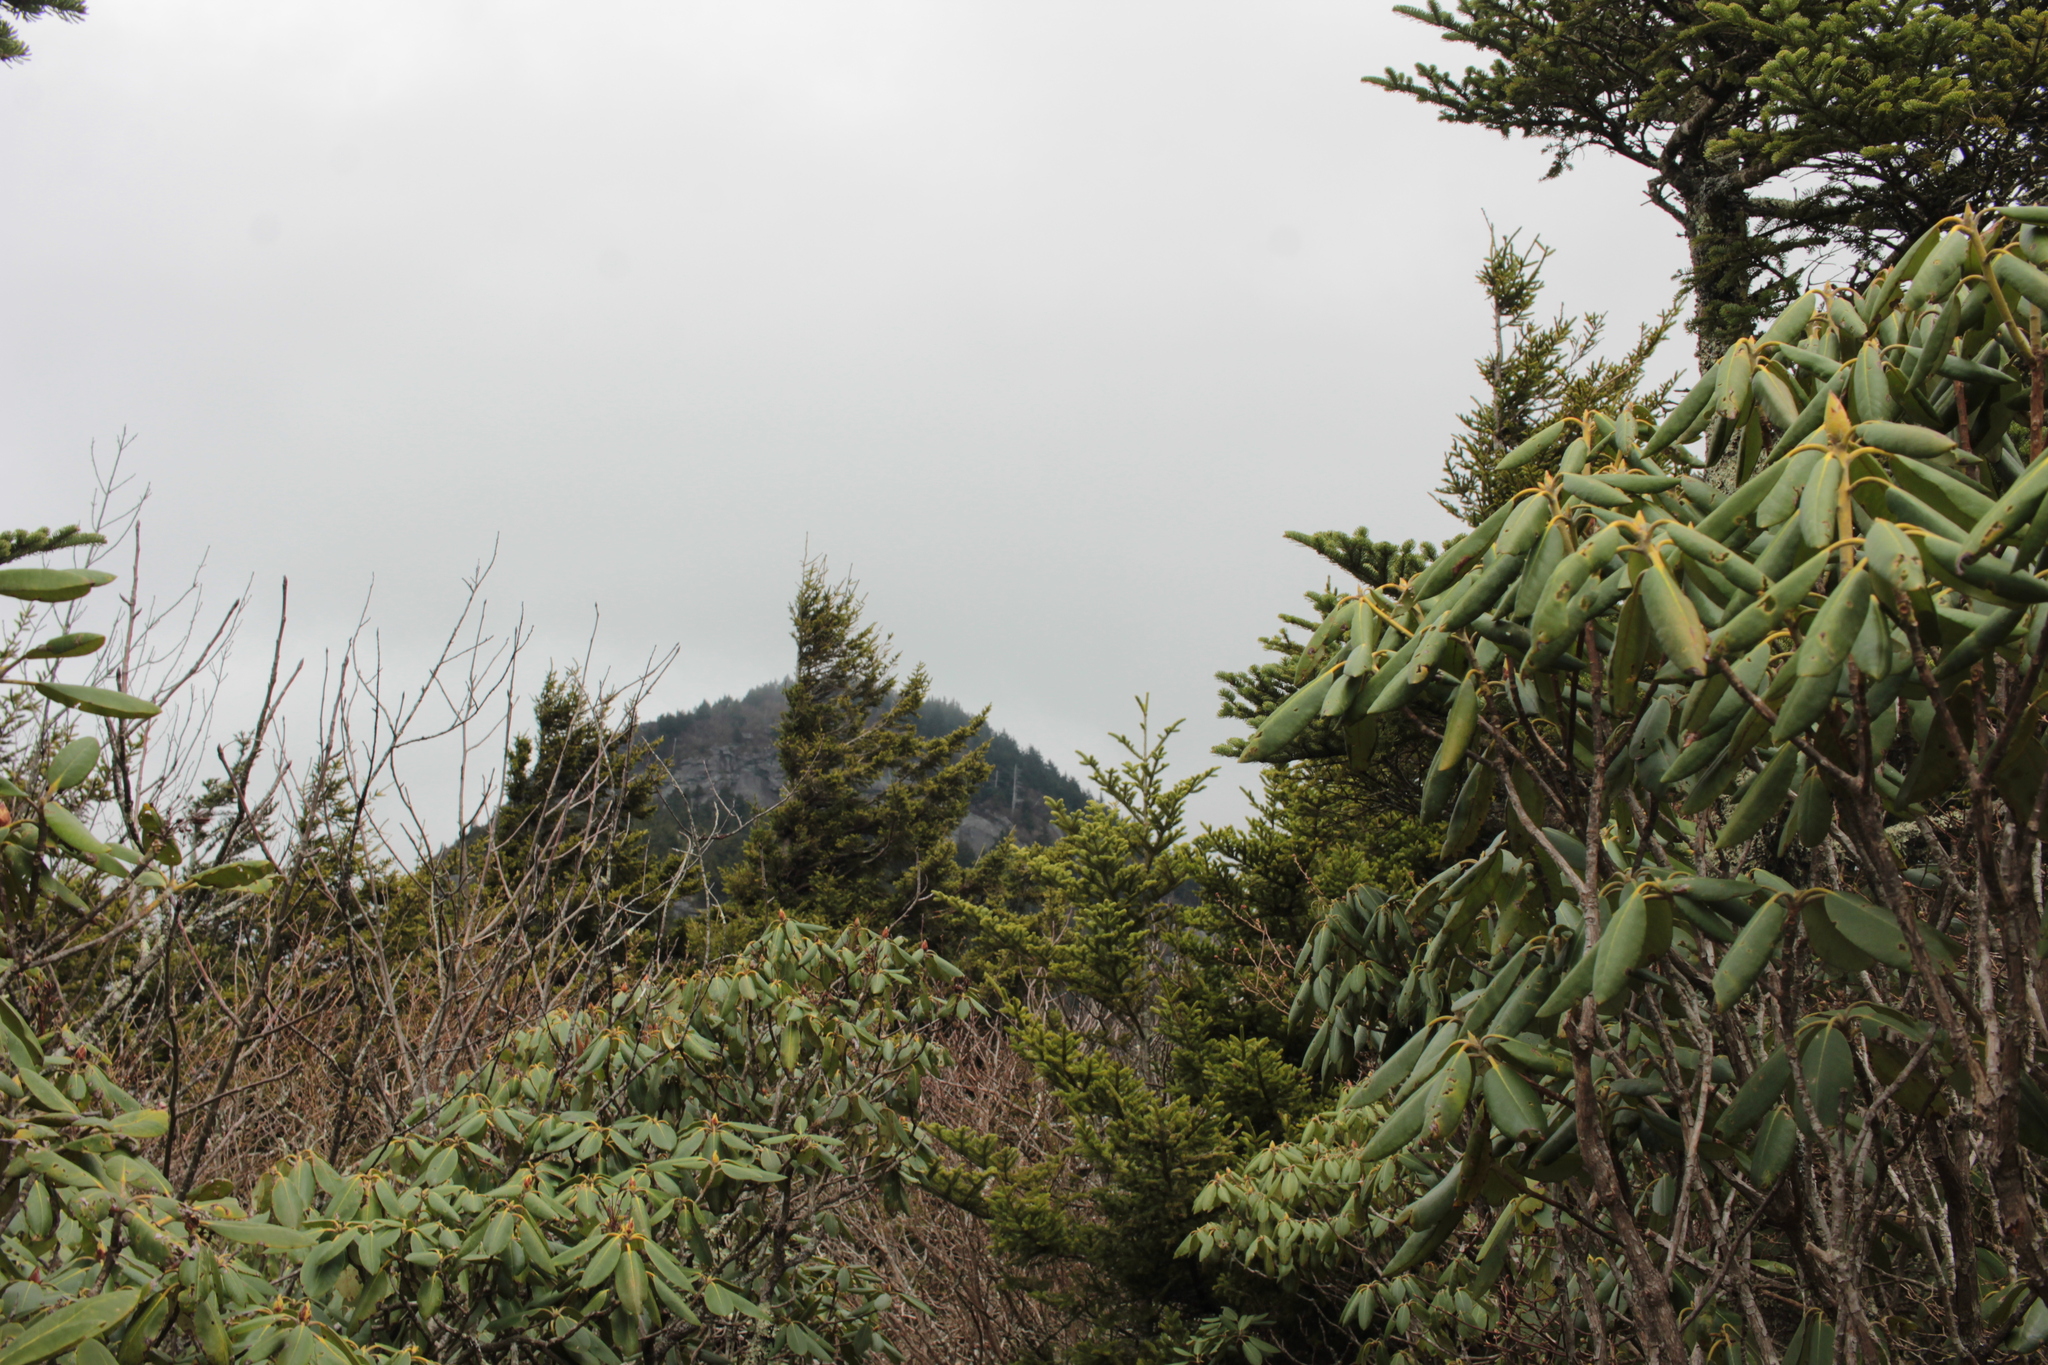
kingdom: Plantae
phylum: Tracheophyta
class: Magnoliopsida
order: Ericales
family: Ericaceae
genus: Rhododendron
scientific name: Rhododendron catawbiense
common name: Catawba rhododendron
